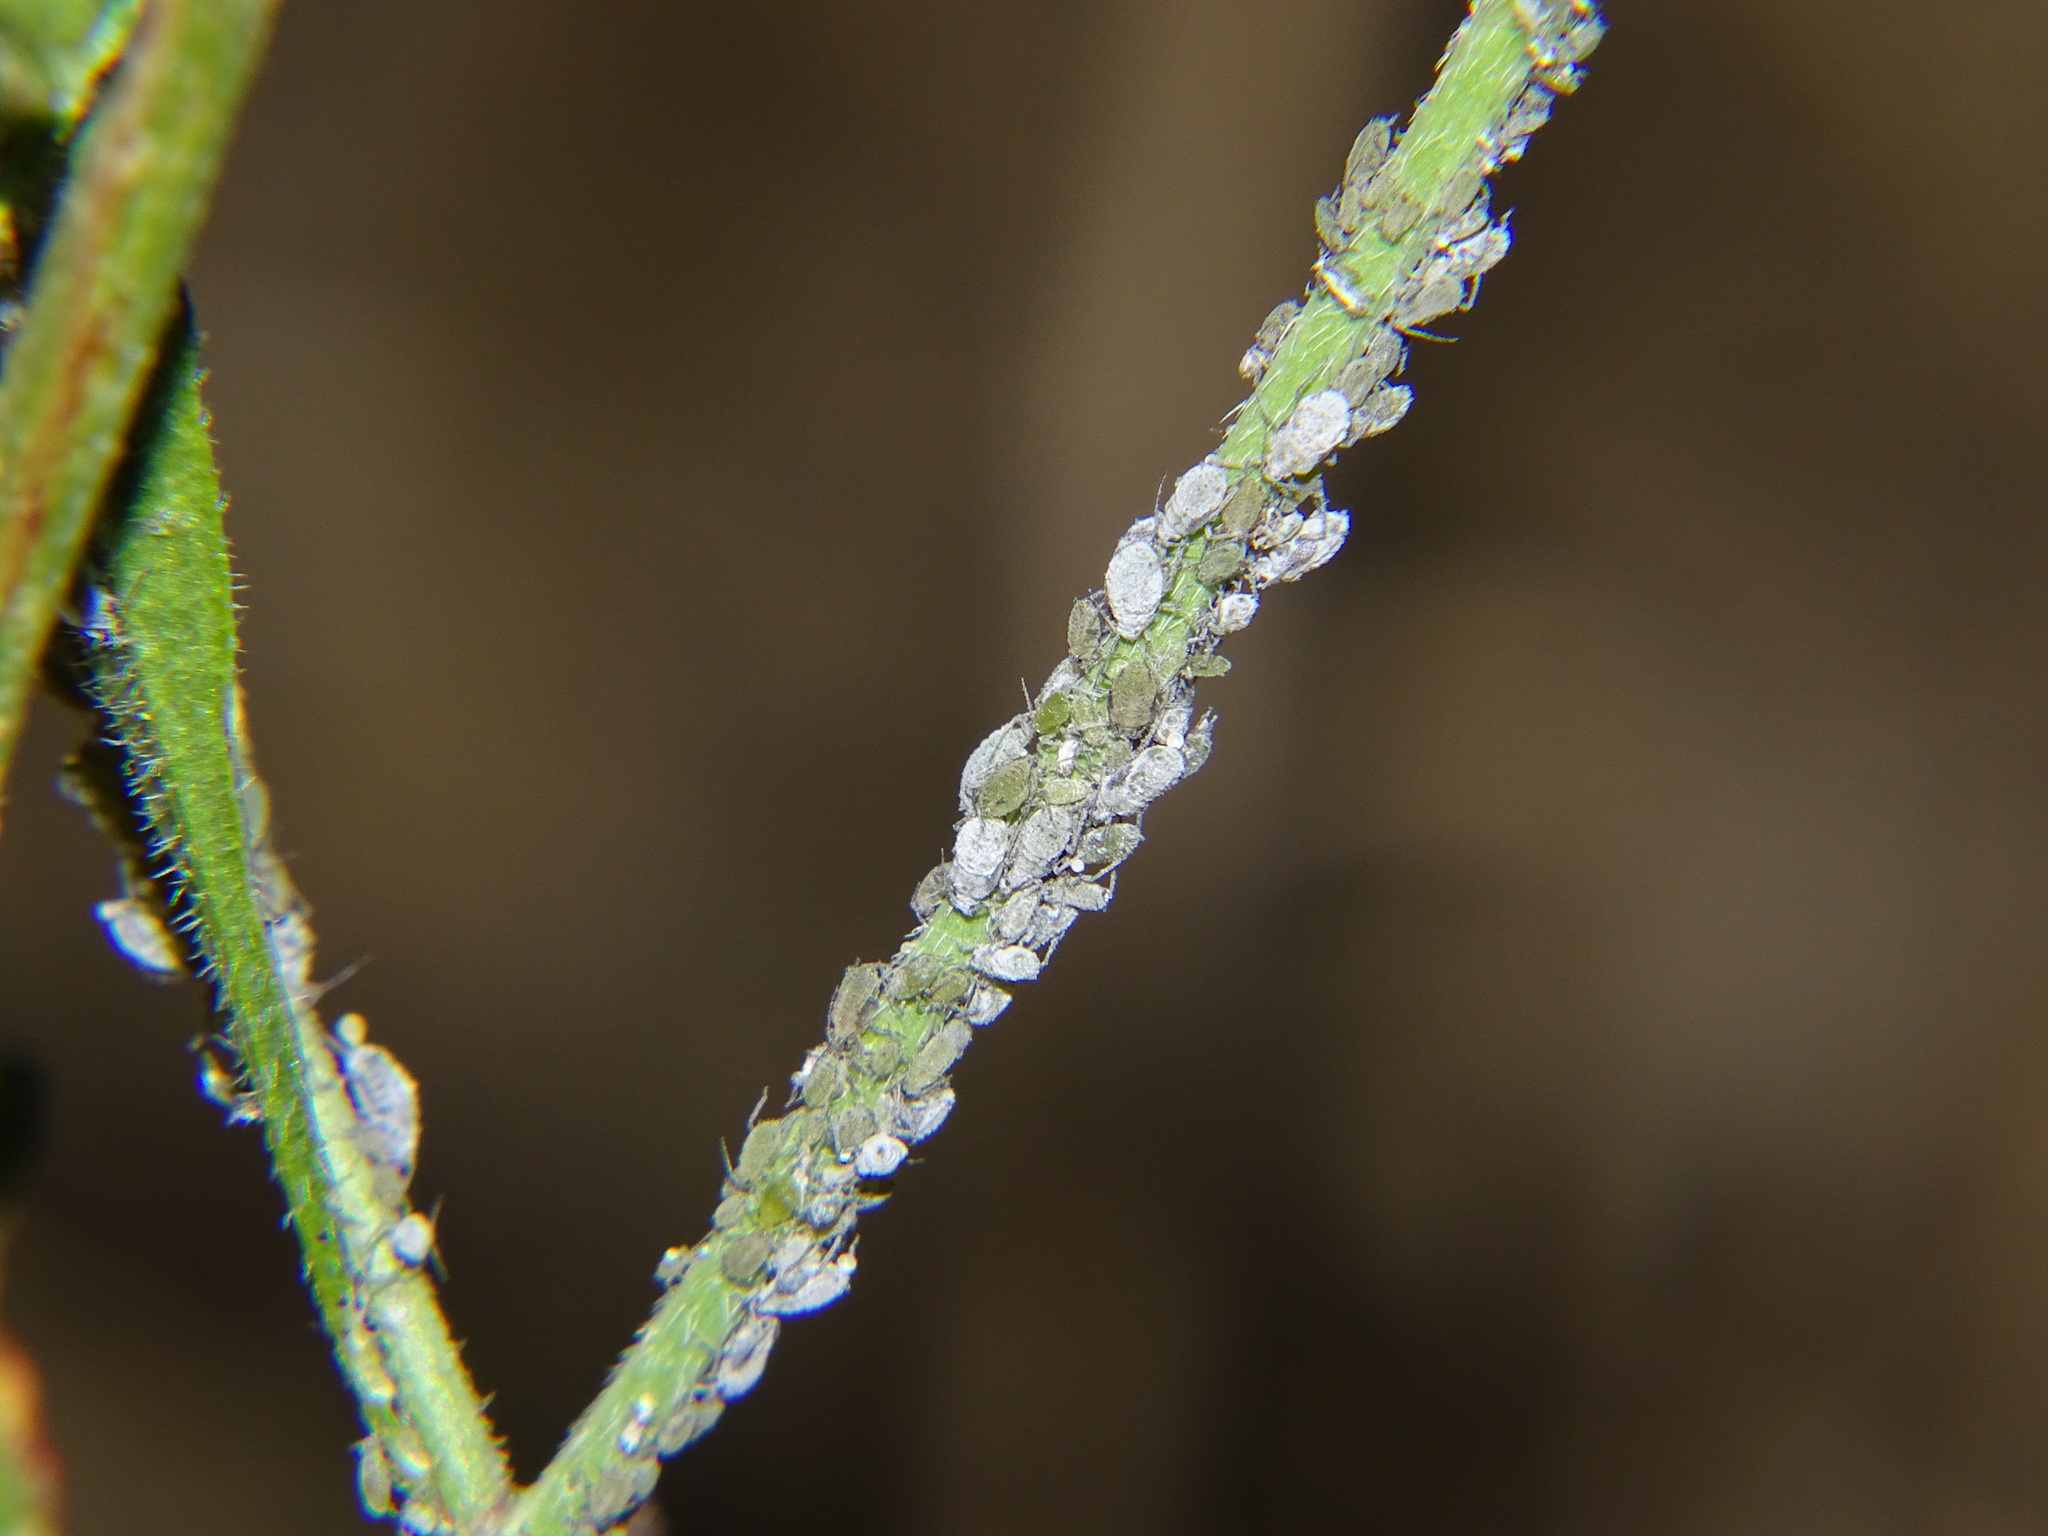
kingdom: Animalia
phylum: Arthropoda
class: Insecta
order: Hemiptera
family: Aphididae
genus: Brevicoryne
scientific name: Brevicoryne brassicae
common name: Cabbage aphid
